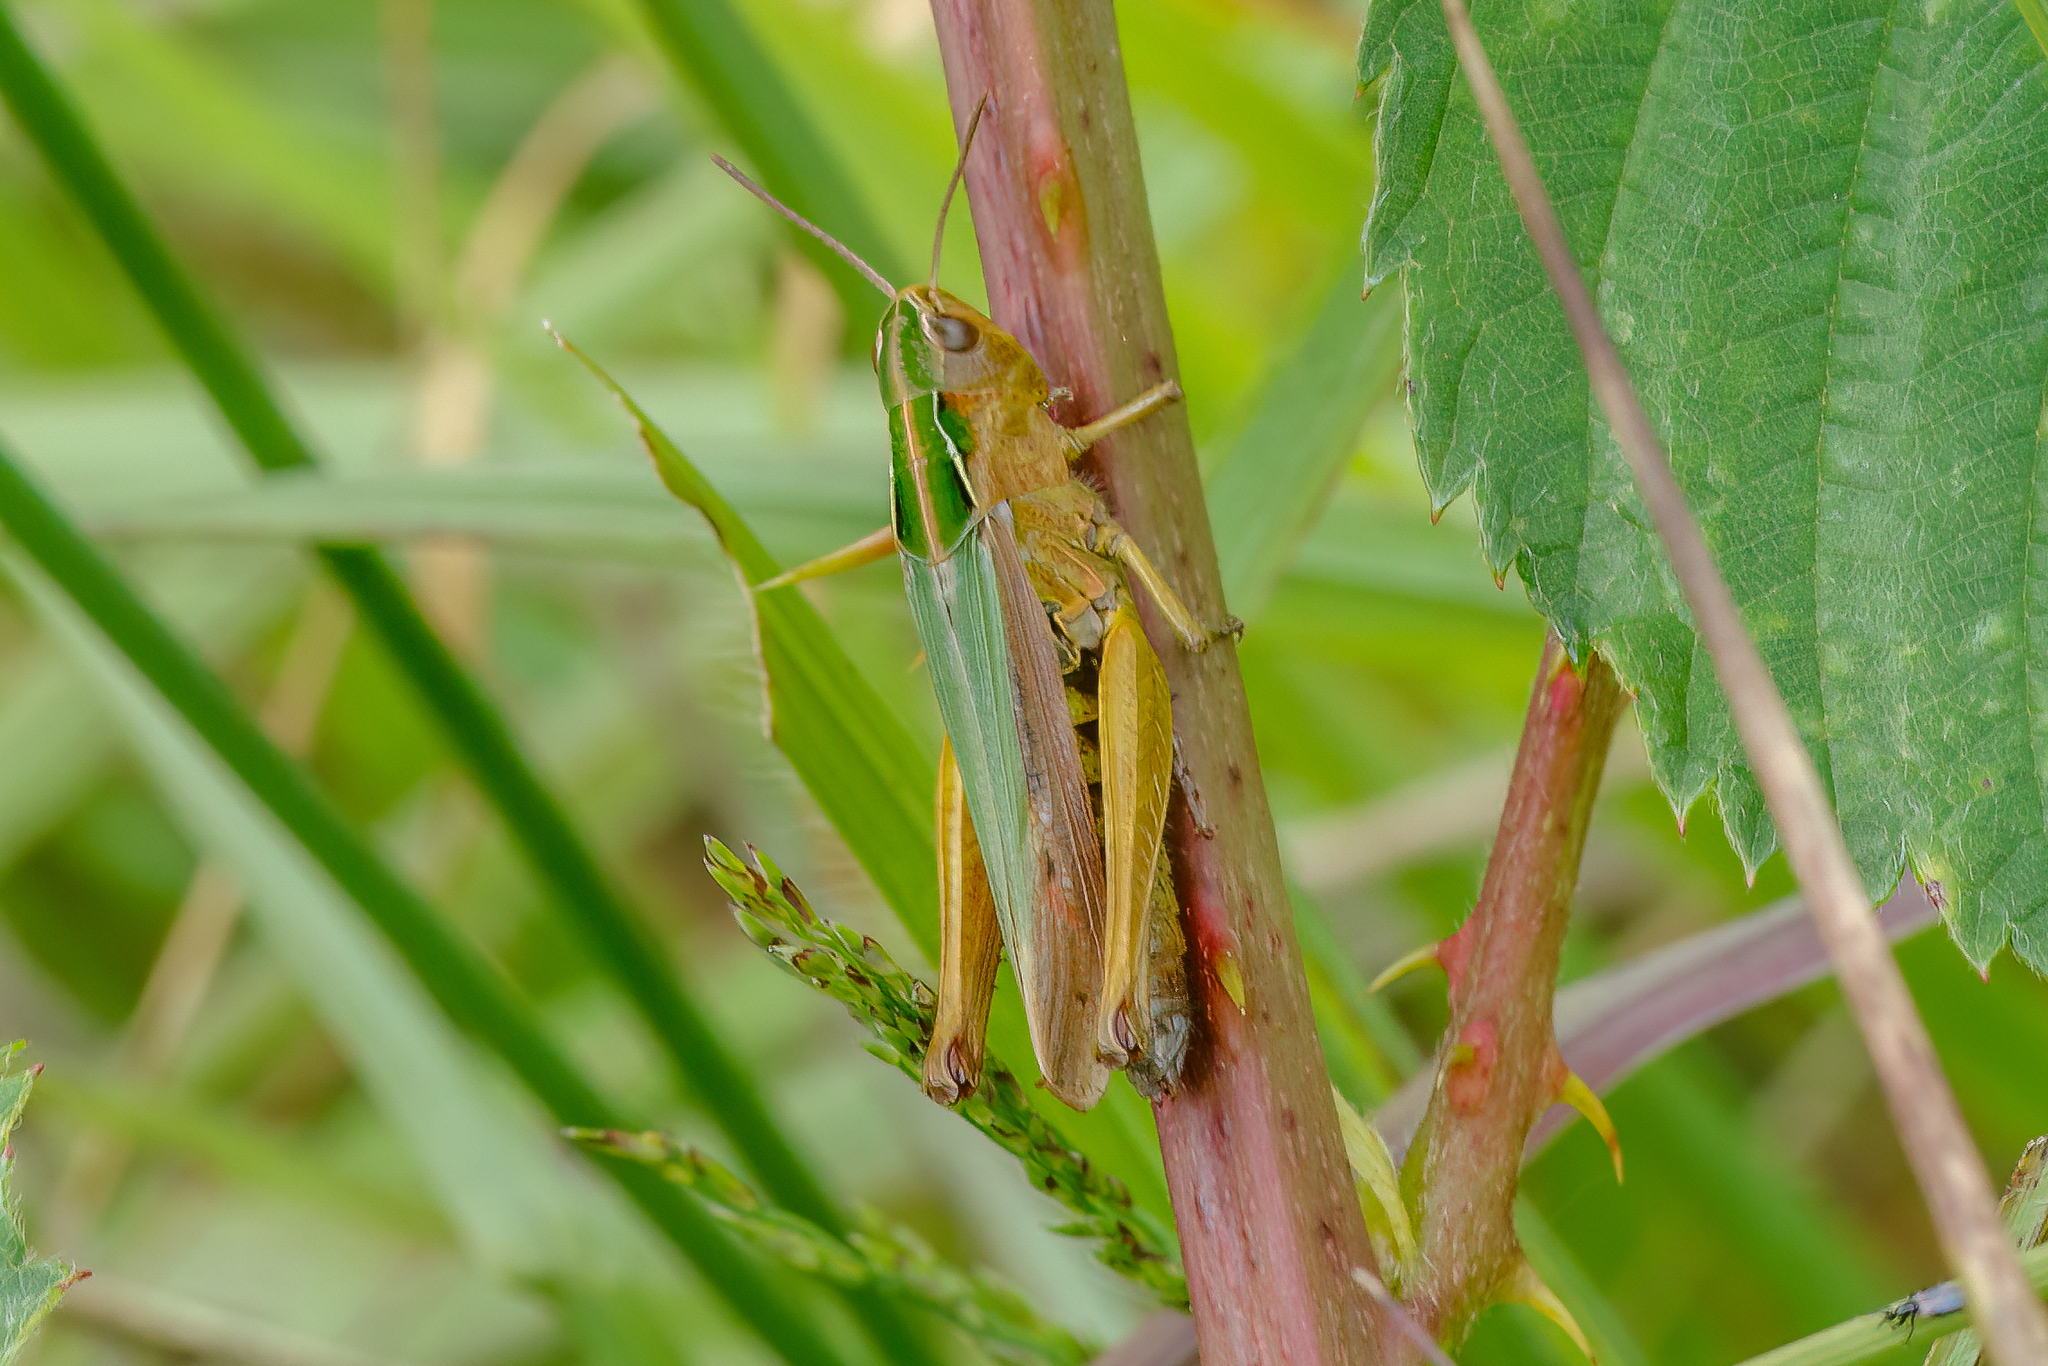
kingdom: Animalia
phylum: Arthropoda
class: Insecta
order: Orthoptera
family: Acrididae
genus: Omocestus
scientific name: Omocestus viridulus
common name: Common green grasshopper
